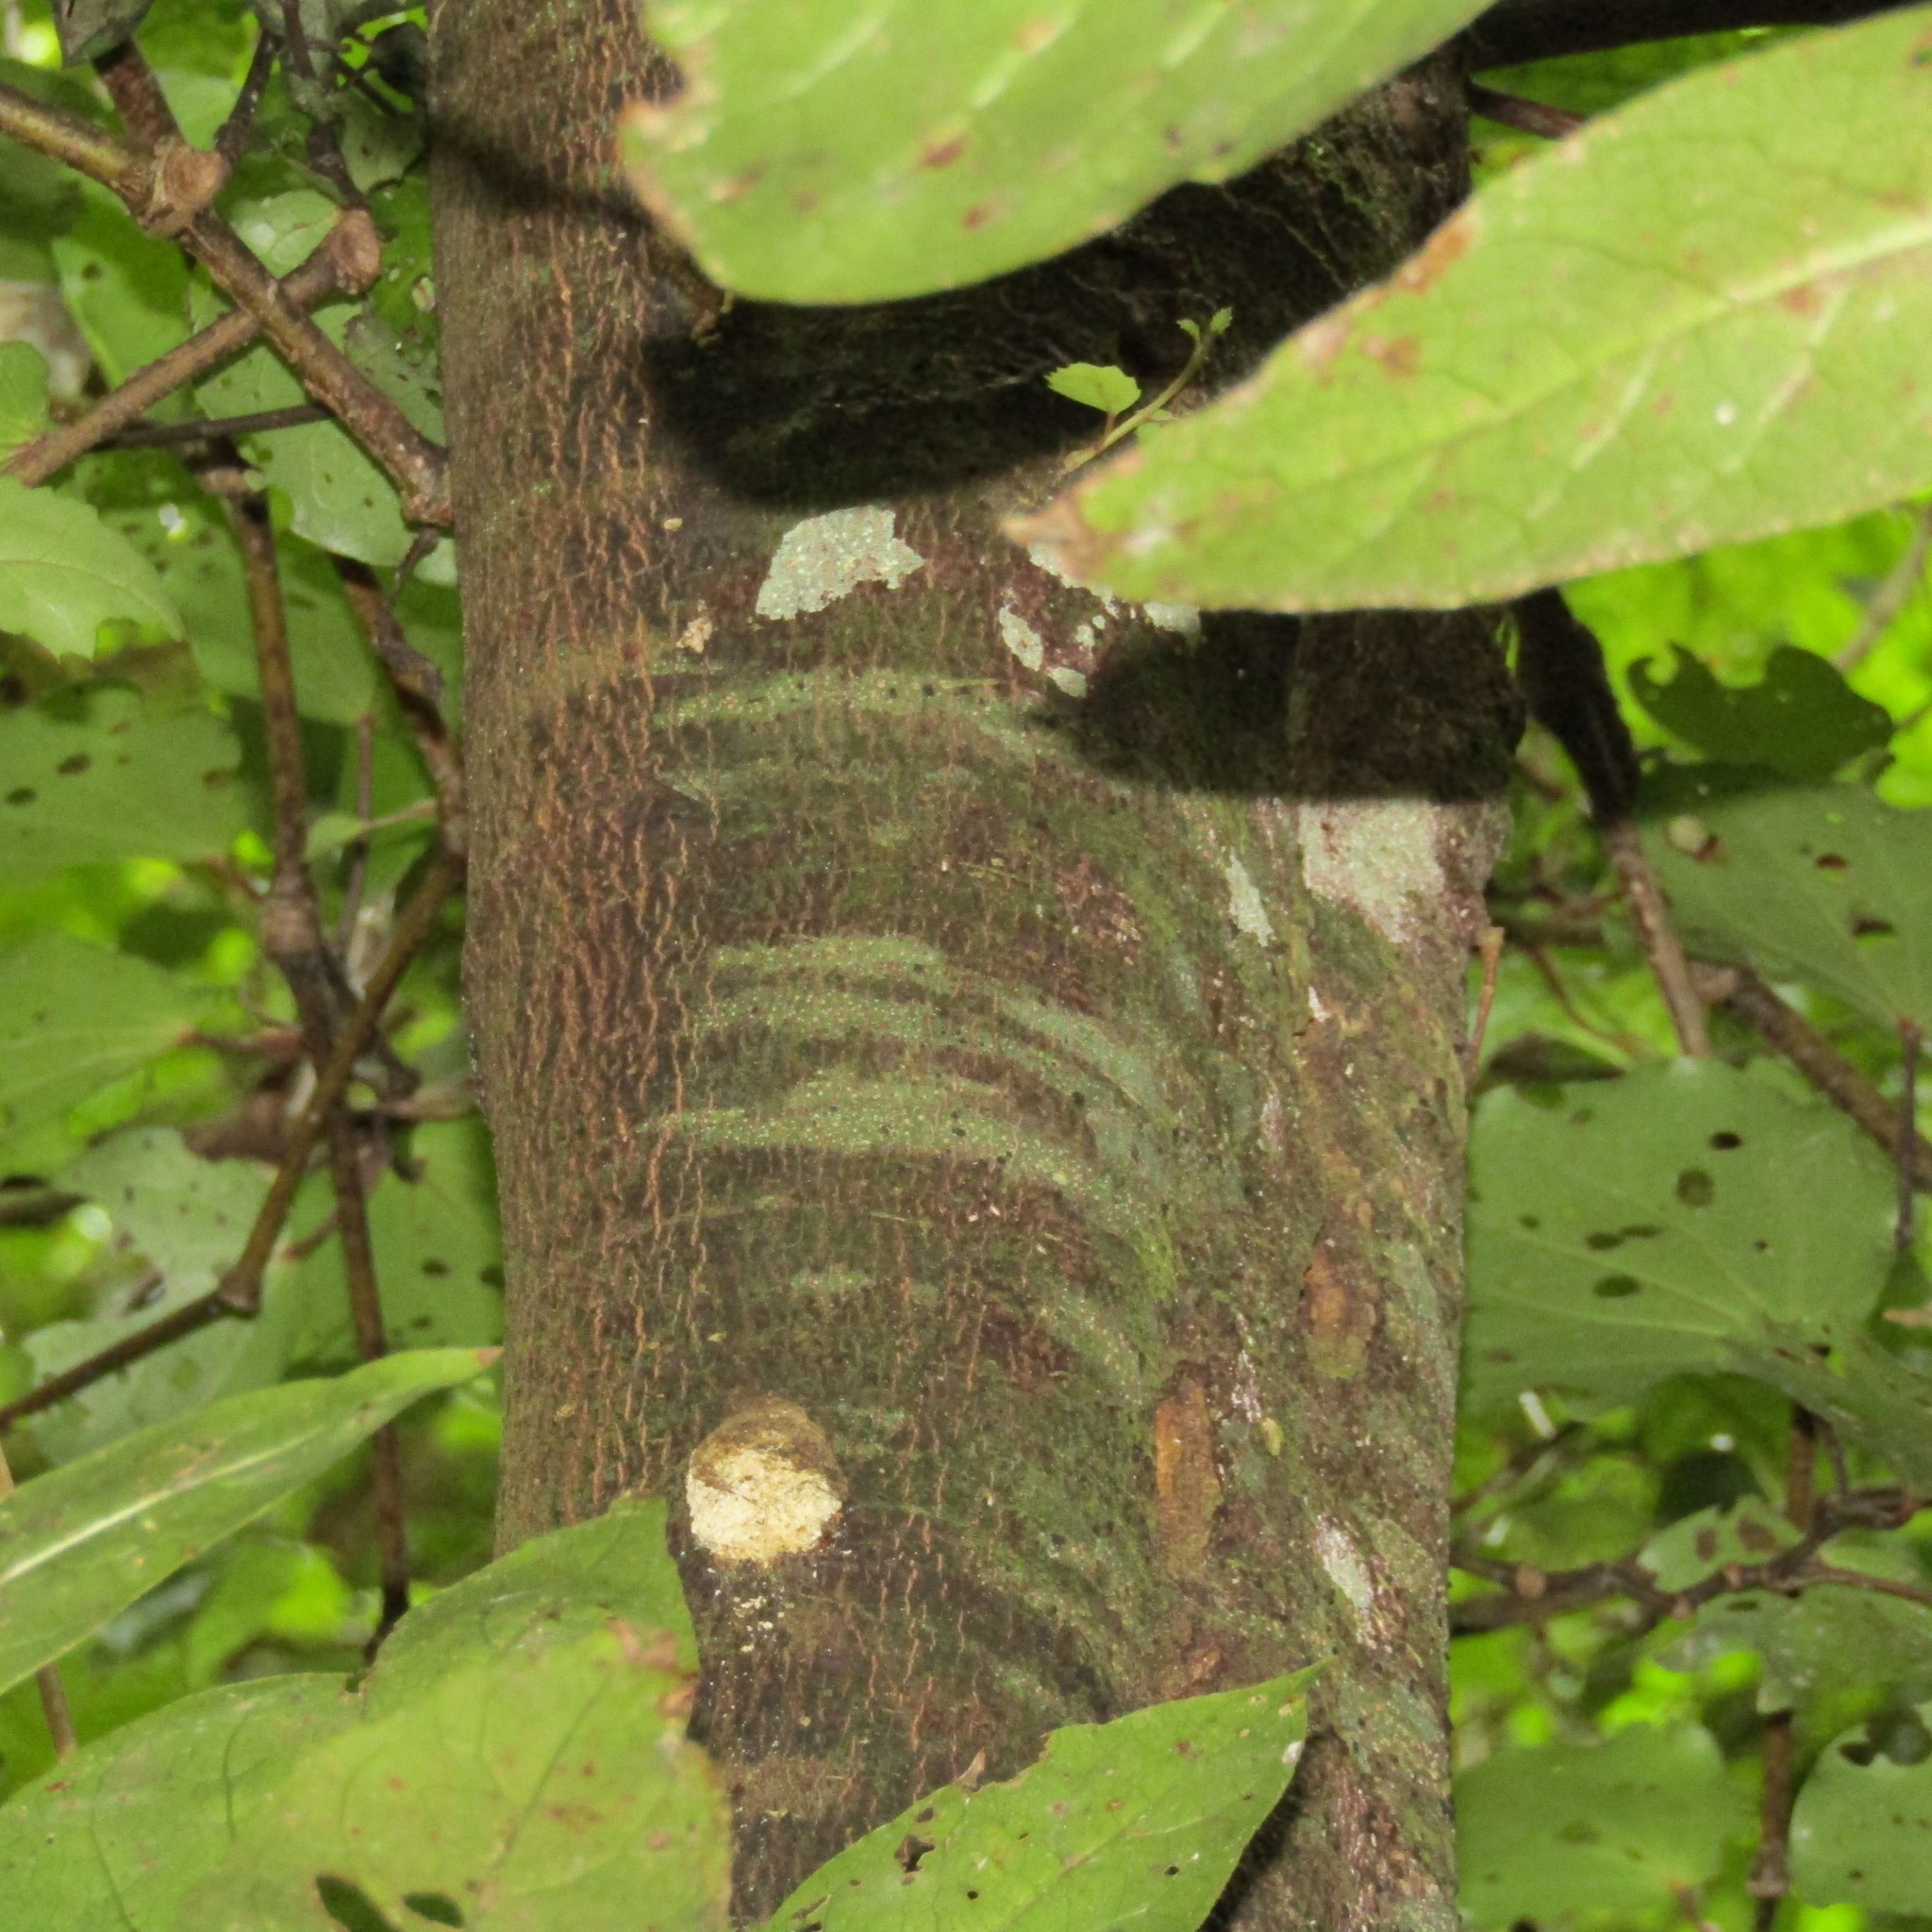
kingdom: Animalia
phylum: Arthropoda
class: Insecta
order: Lepidoptera
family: Hepialidae
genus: Aenetus
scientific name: Aenetus virescens
